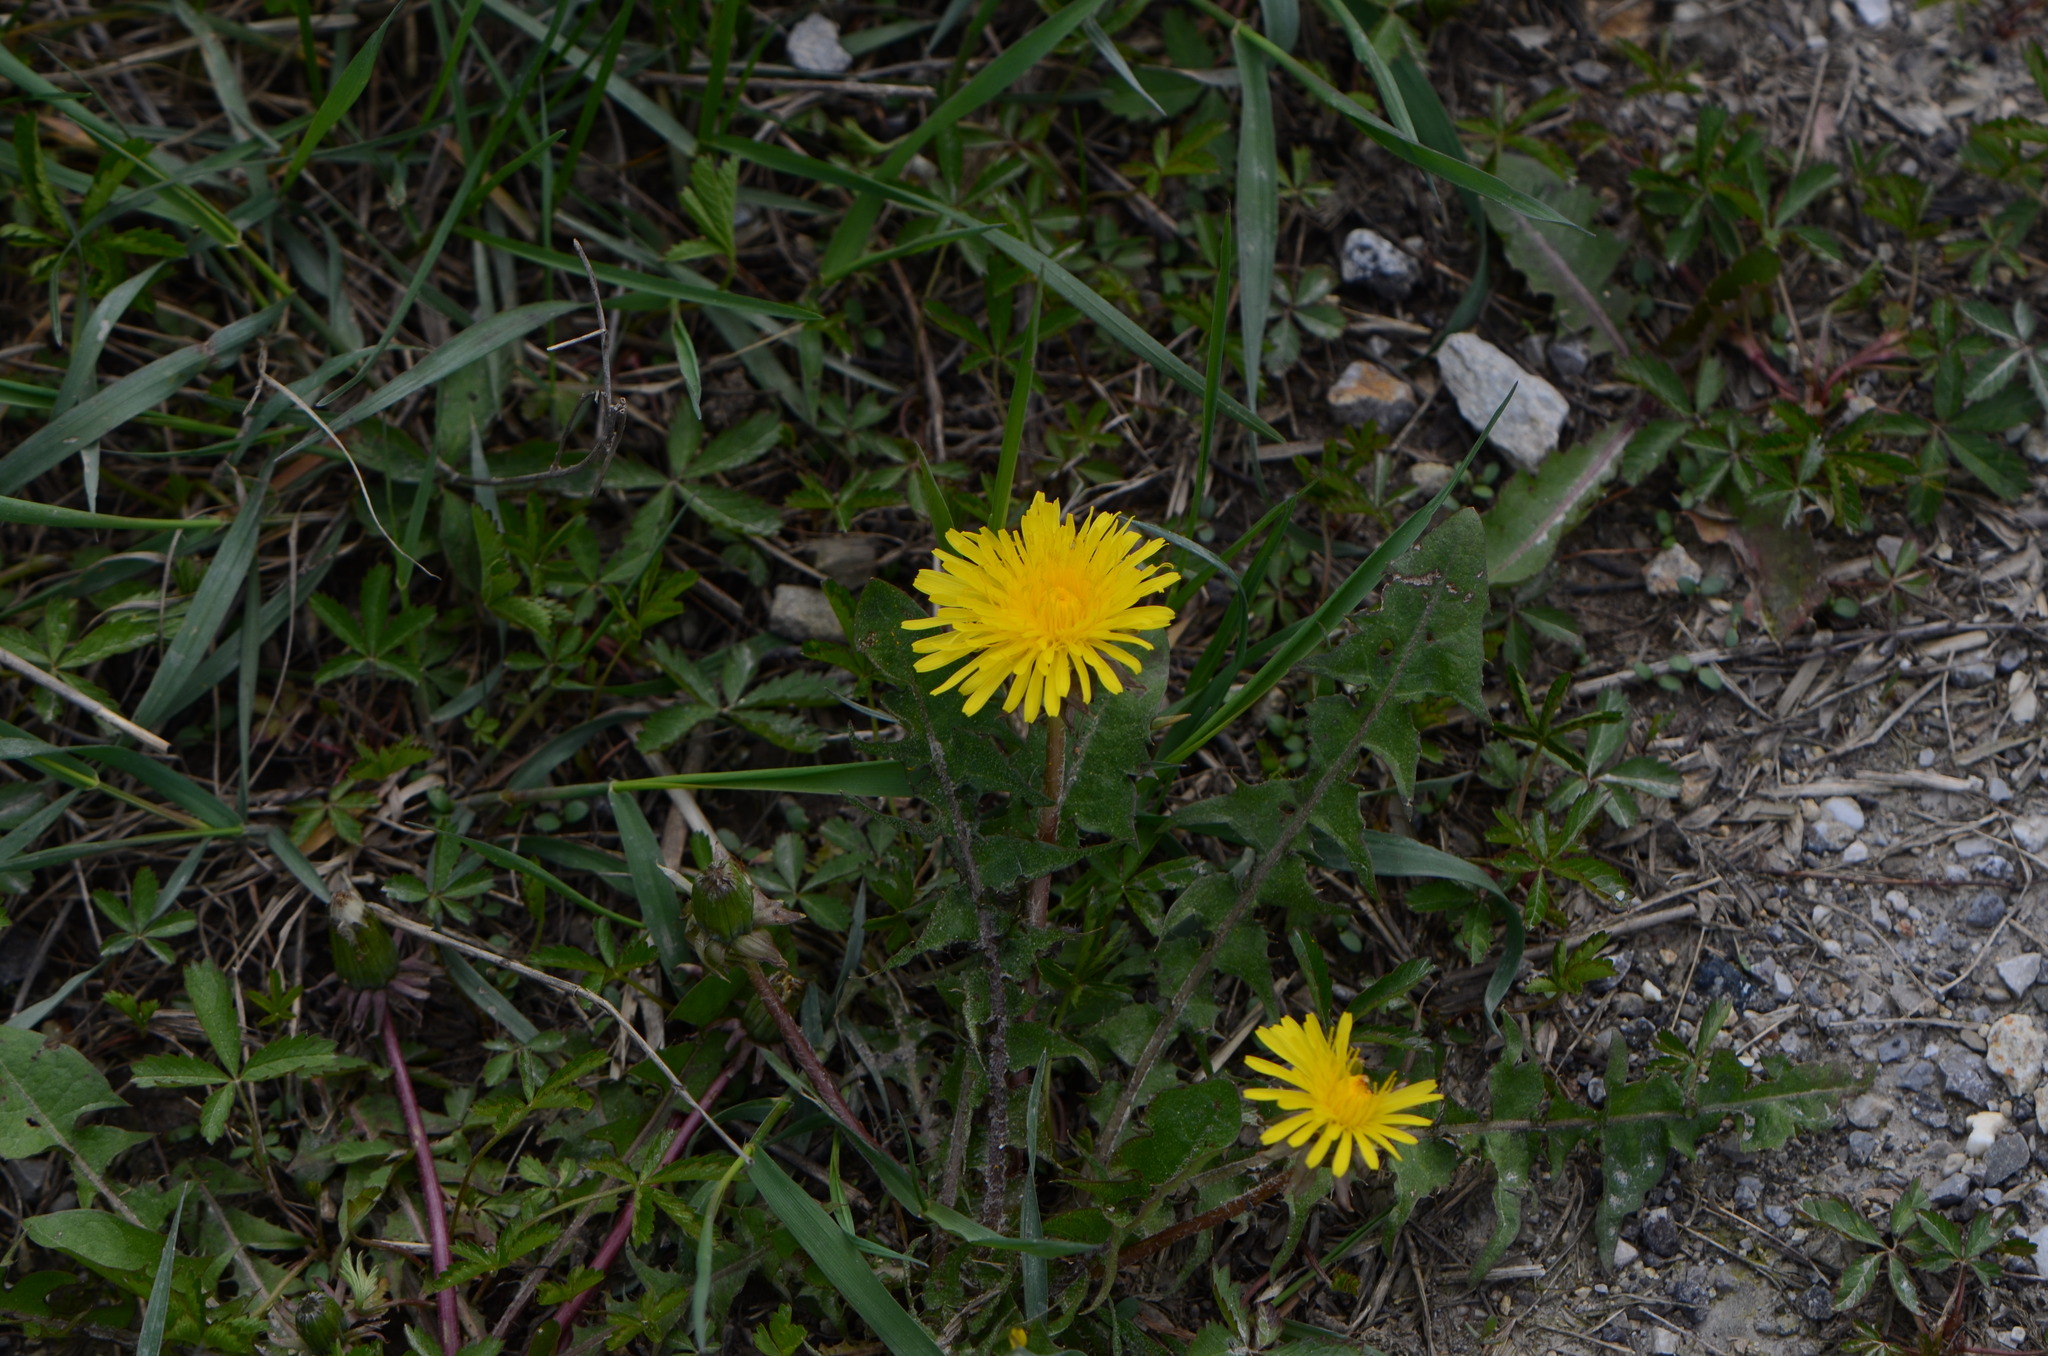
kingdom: Plantae
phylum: Tracheophyta
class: Magnoliopsida
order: Asterales
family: Asteraceae
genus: Taraxacum
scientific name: Taraxacum
